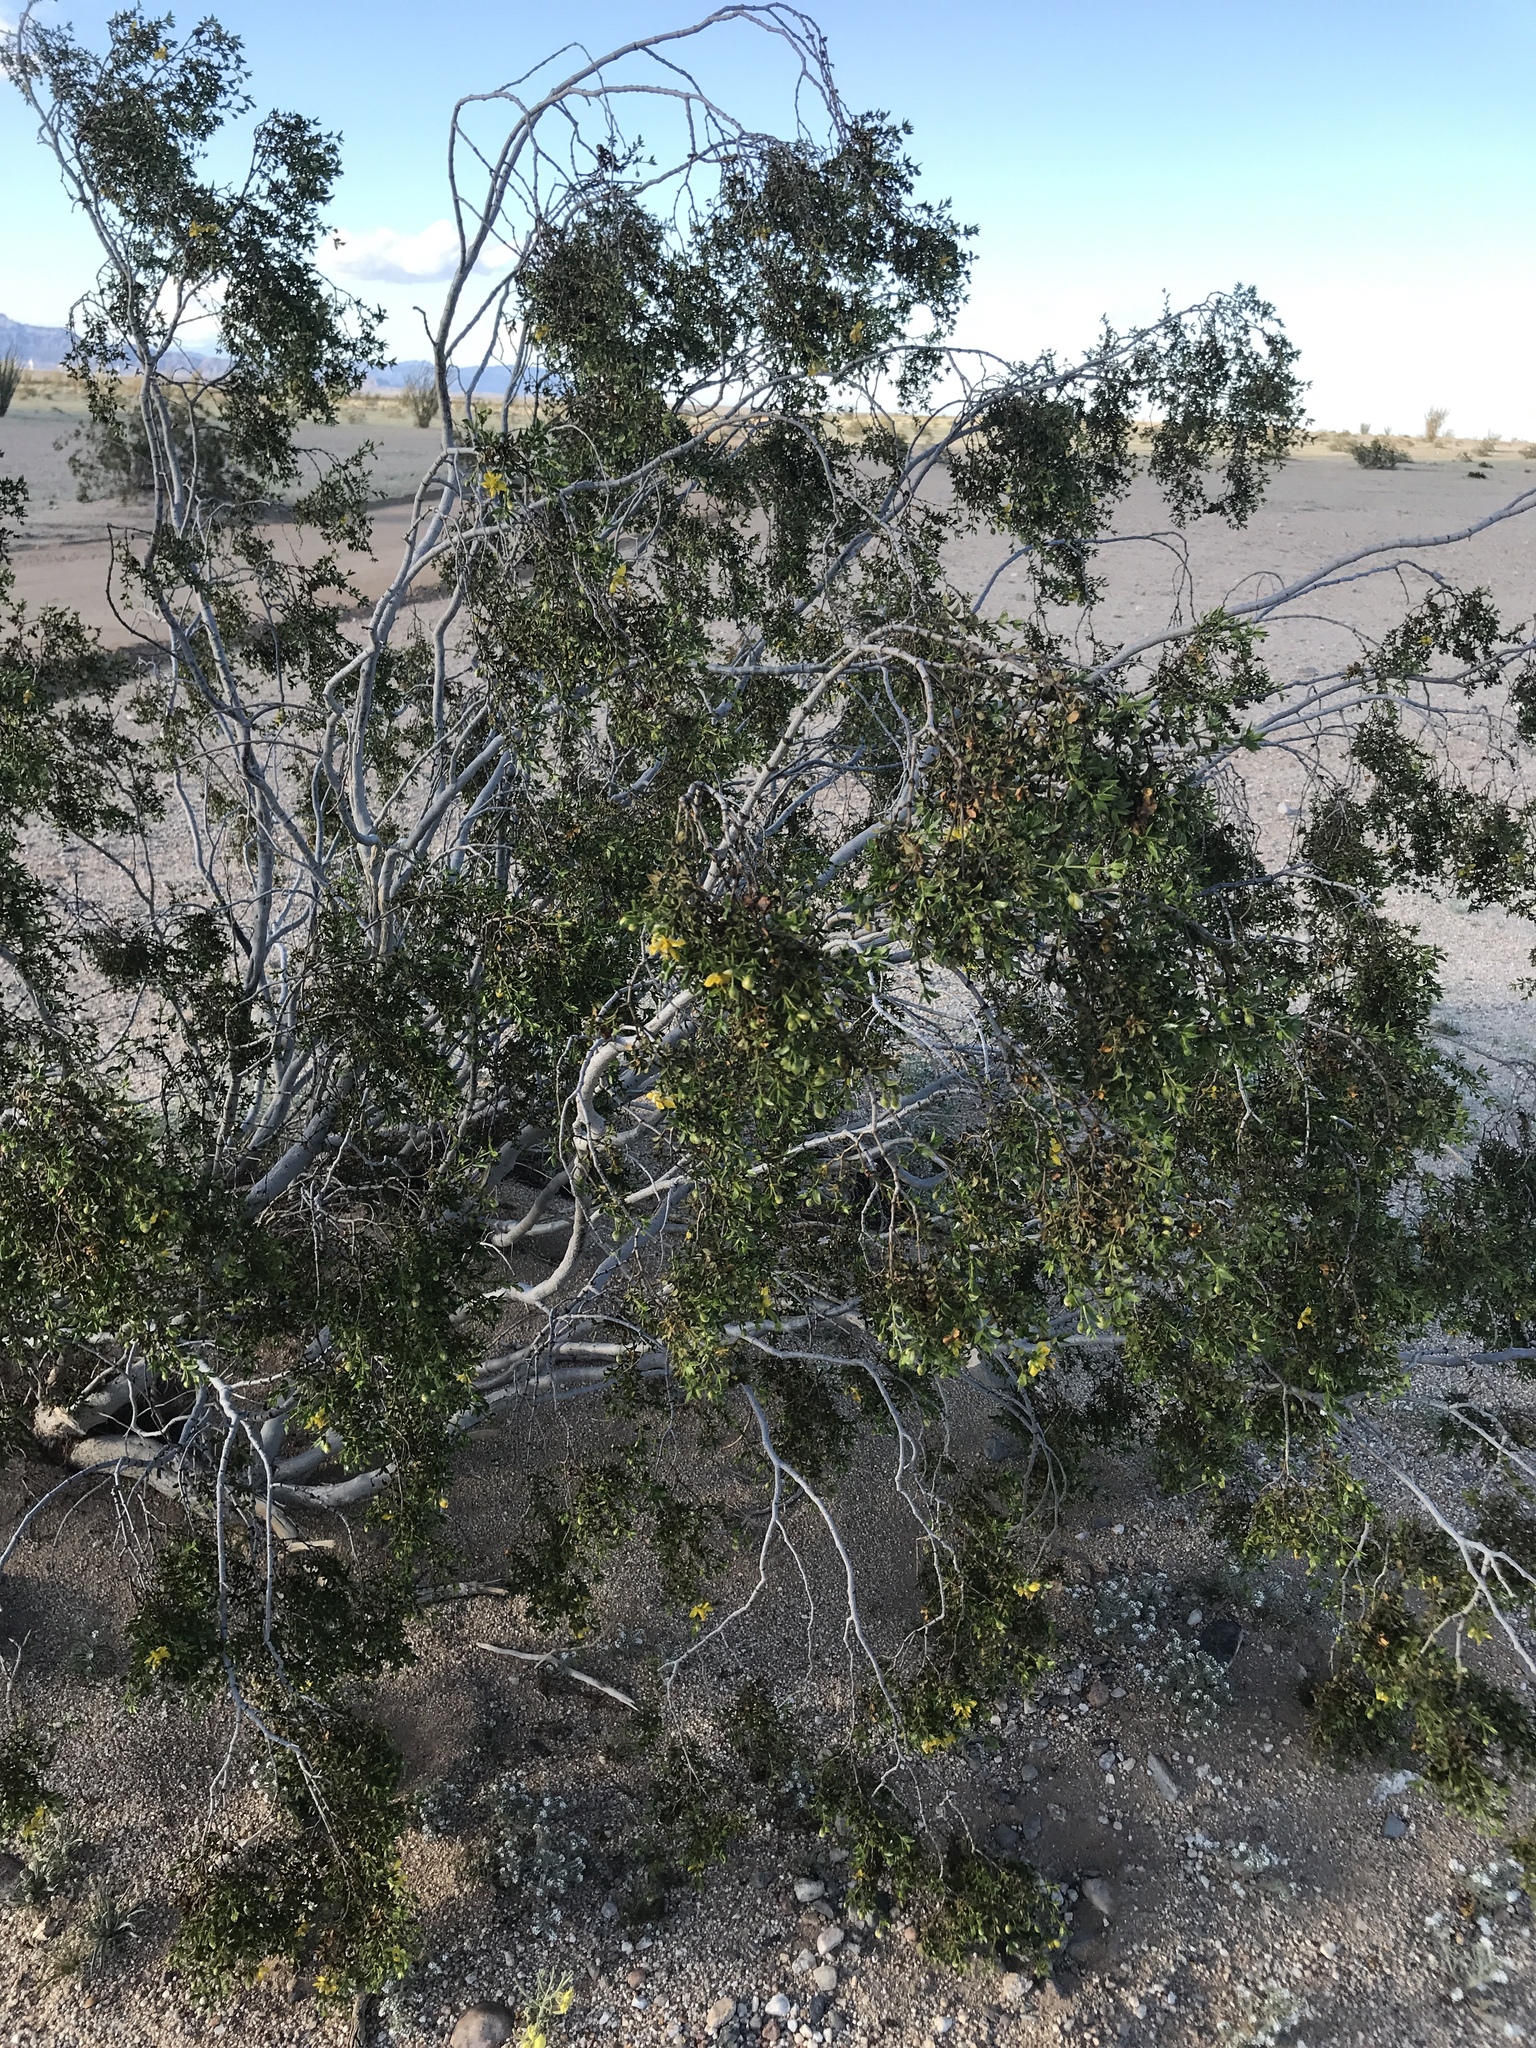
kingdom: Plantae
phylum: Tracheophyta
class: Magnoliopsida
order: Zygophyllales
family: Zygophyllaceae
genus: Larrea
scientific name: Larrea tridentata
